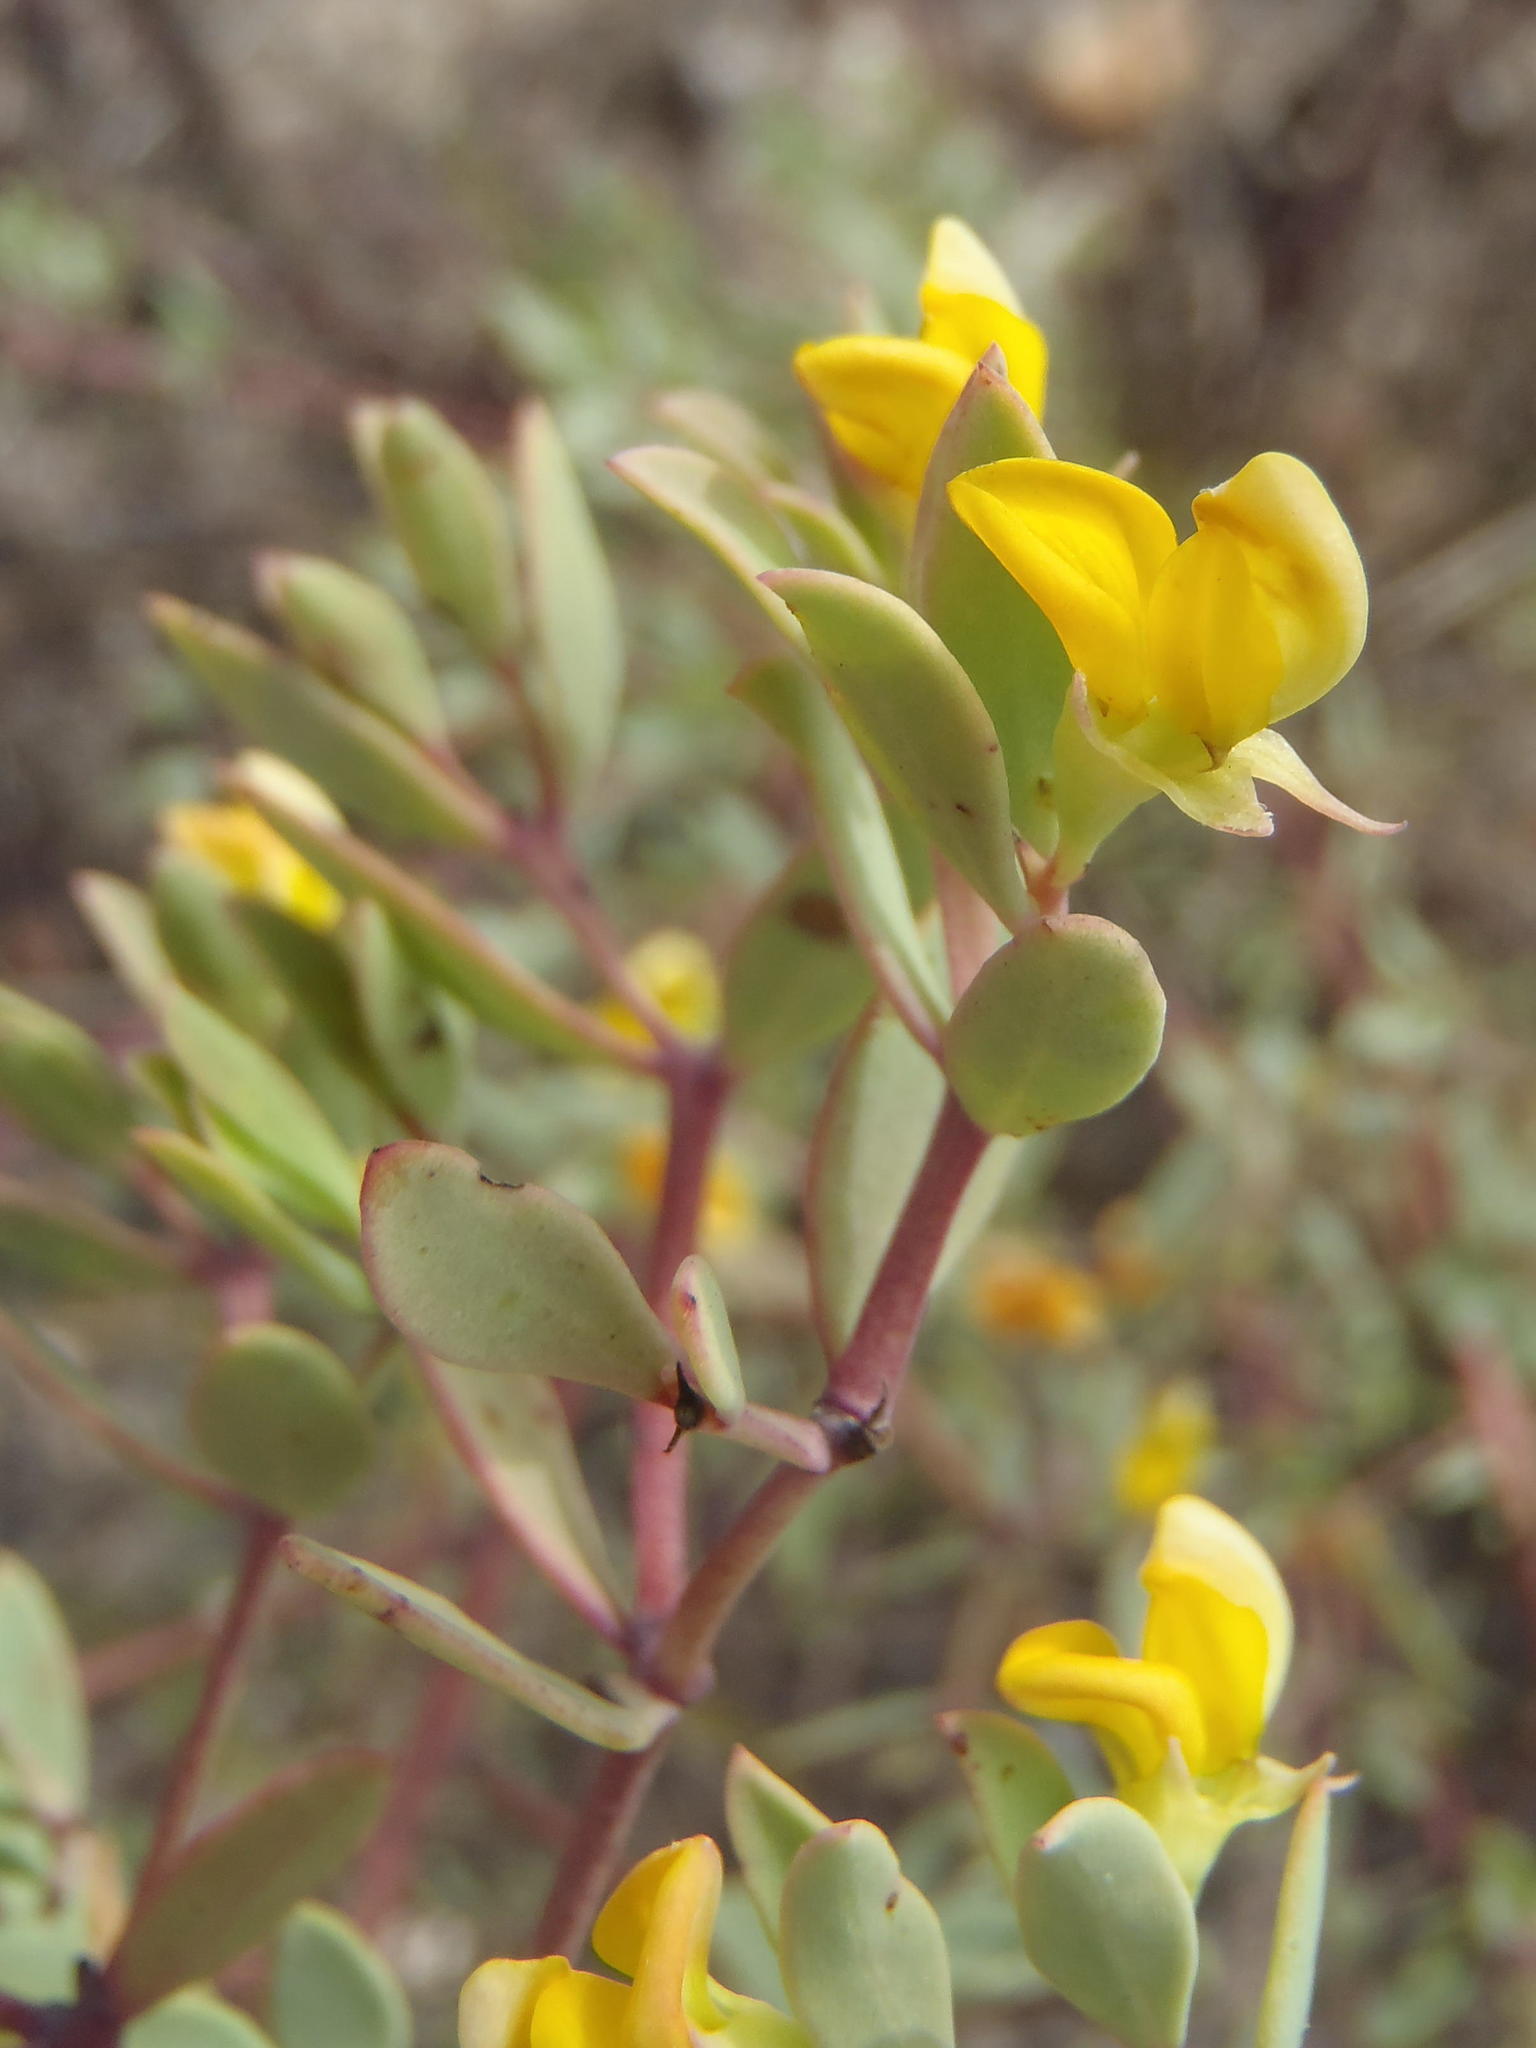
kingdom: Plantae
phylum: Tracheophyta
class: Magnoliopsida
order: Fabales
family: Fabaceae
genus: Rafnia
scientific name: Rafnia capensis
